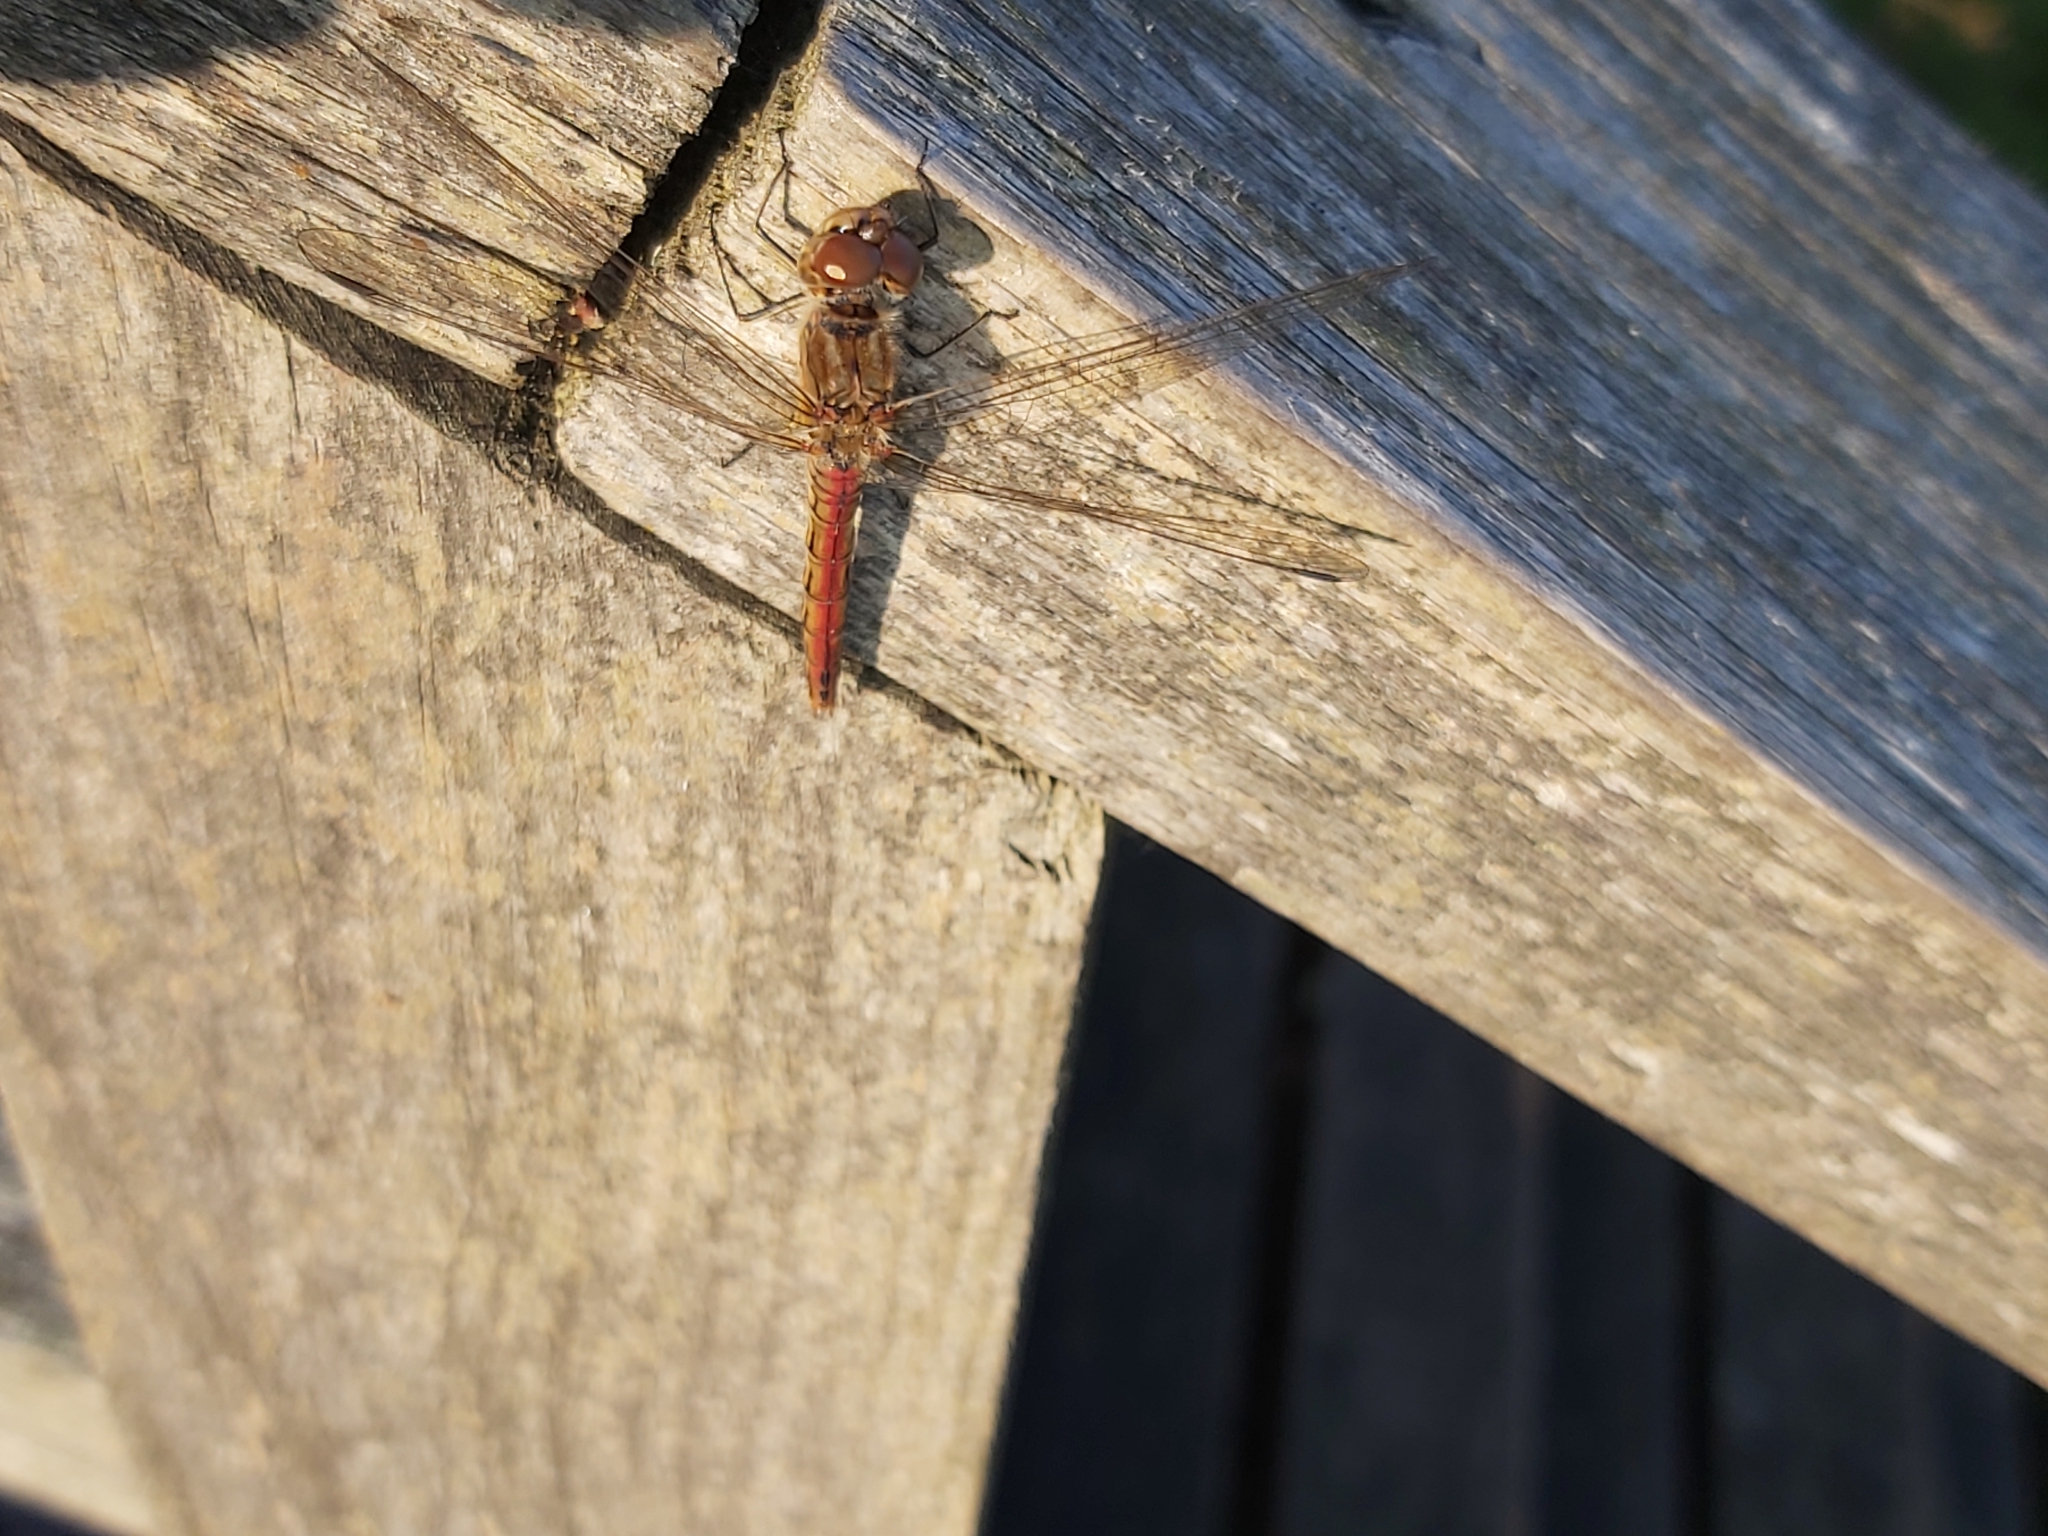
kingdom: Animalia
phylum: Arthropoda
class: Insecta
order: Odonata
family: Libellulidae
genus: Sympetrum
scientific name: Sympetrum vulgatum
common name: Vagrant darter
